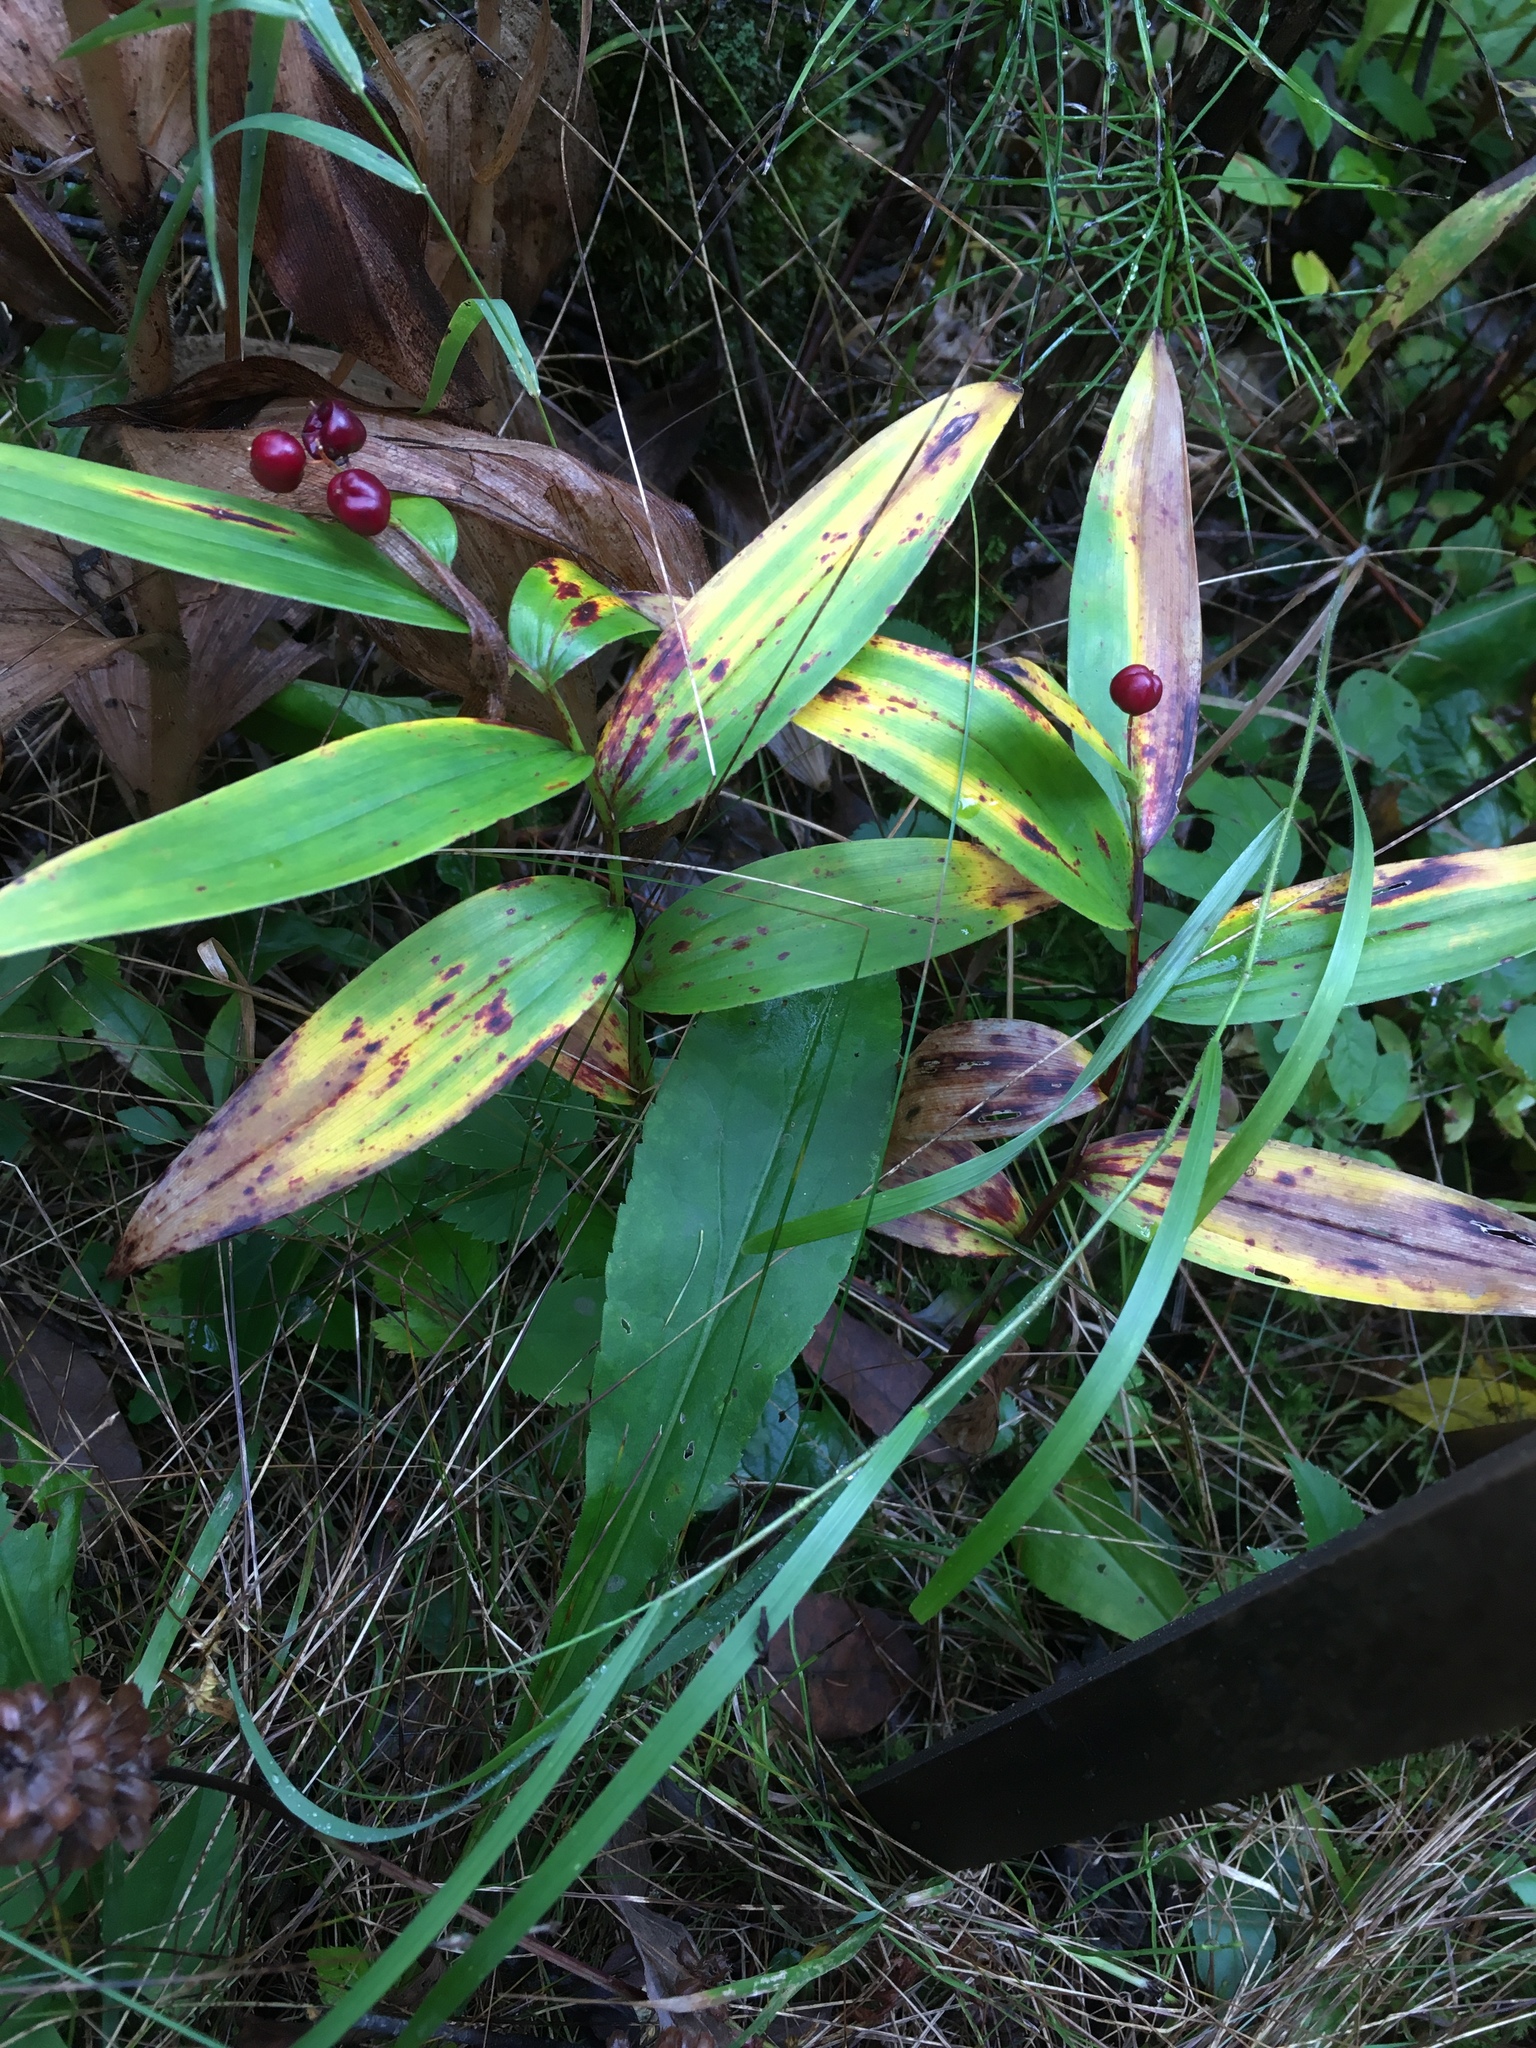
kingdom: Plantae
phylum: Tracheophyta
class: Liliopsida
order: Asparagales
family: Asparagaceae
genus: Maianthemum
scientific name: Maianthemum stellatum
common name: Little false solomon's seal
